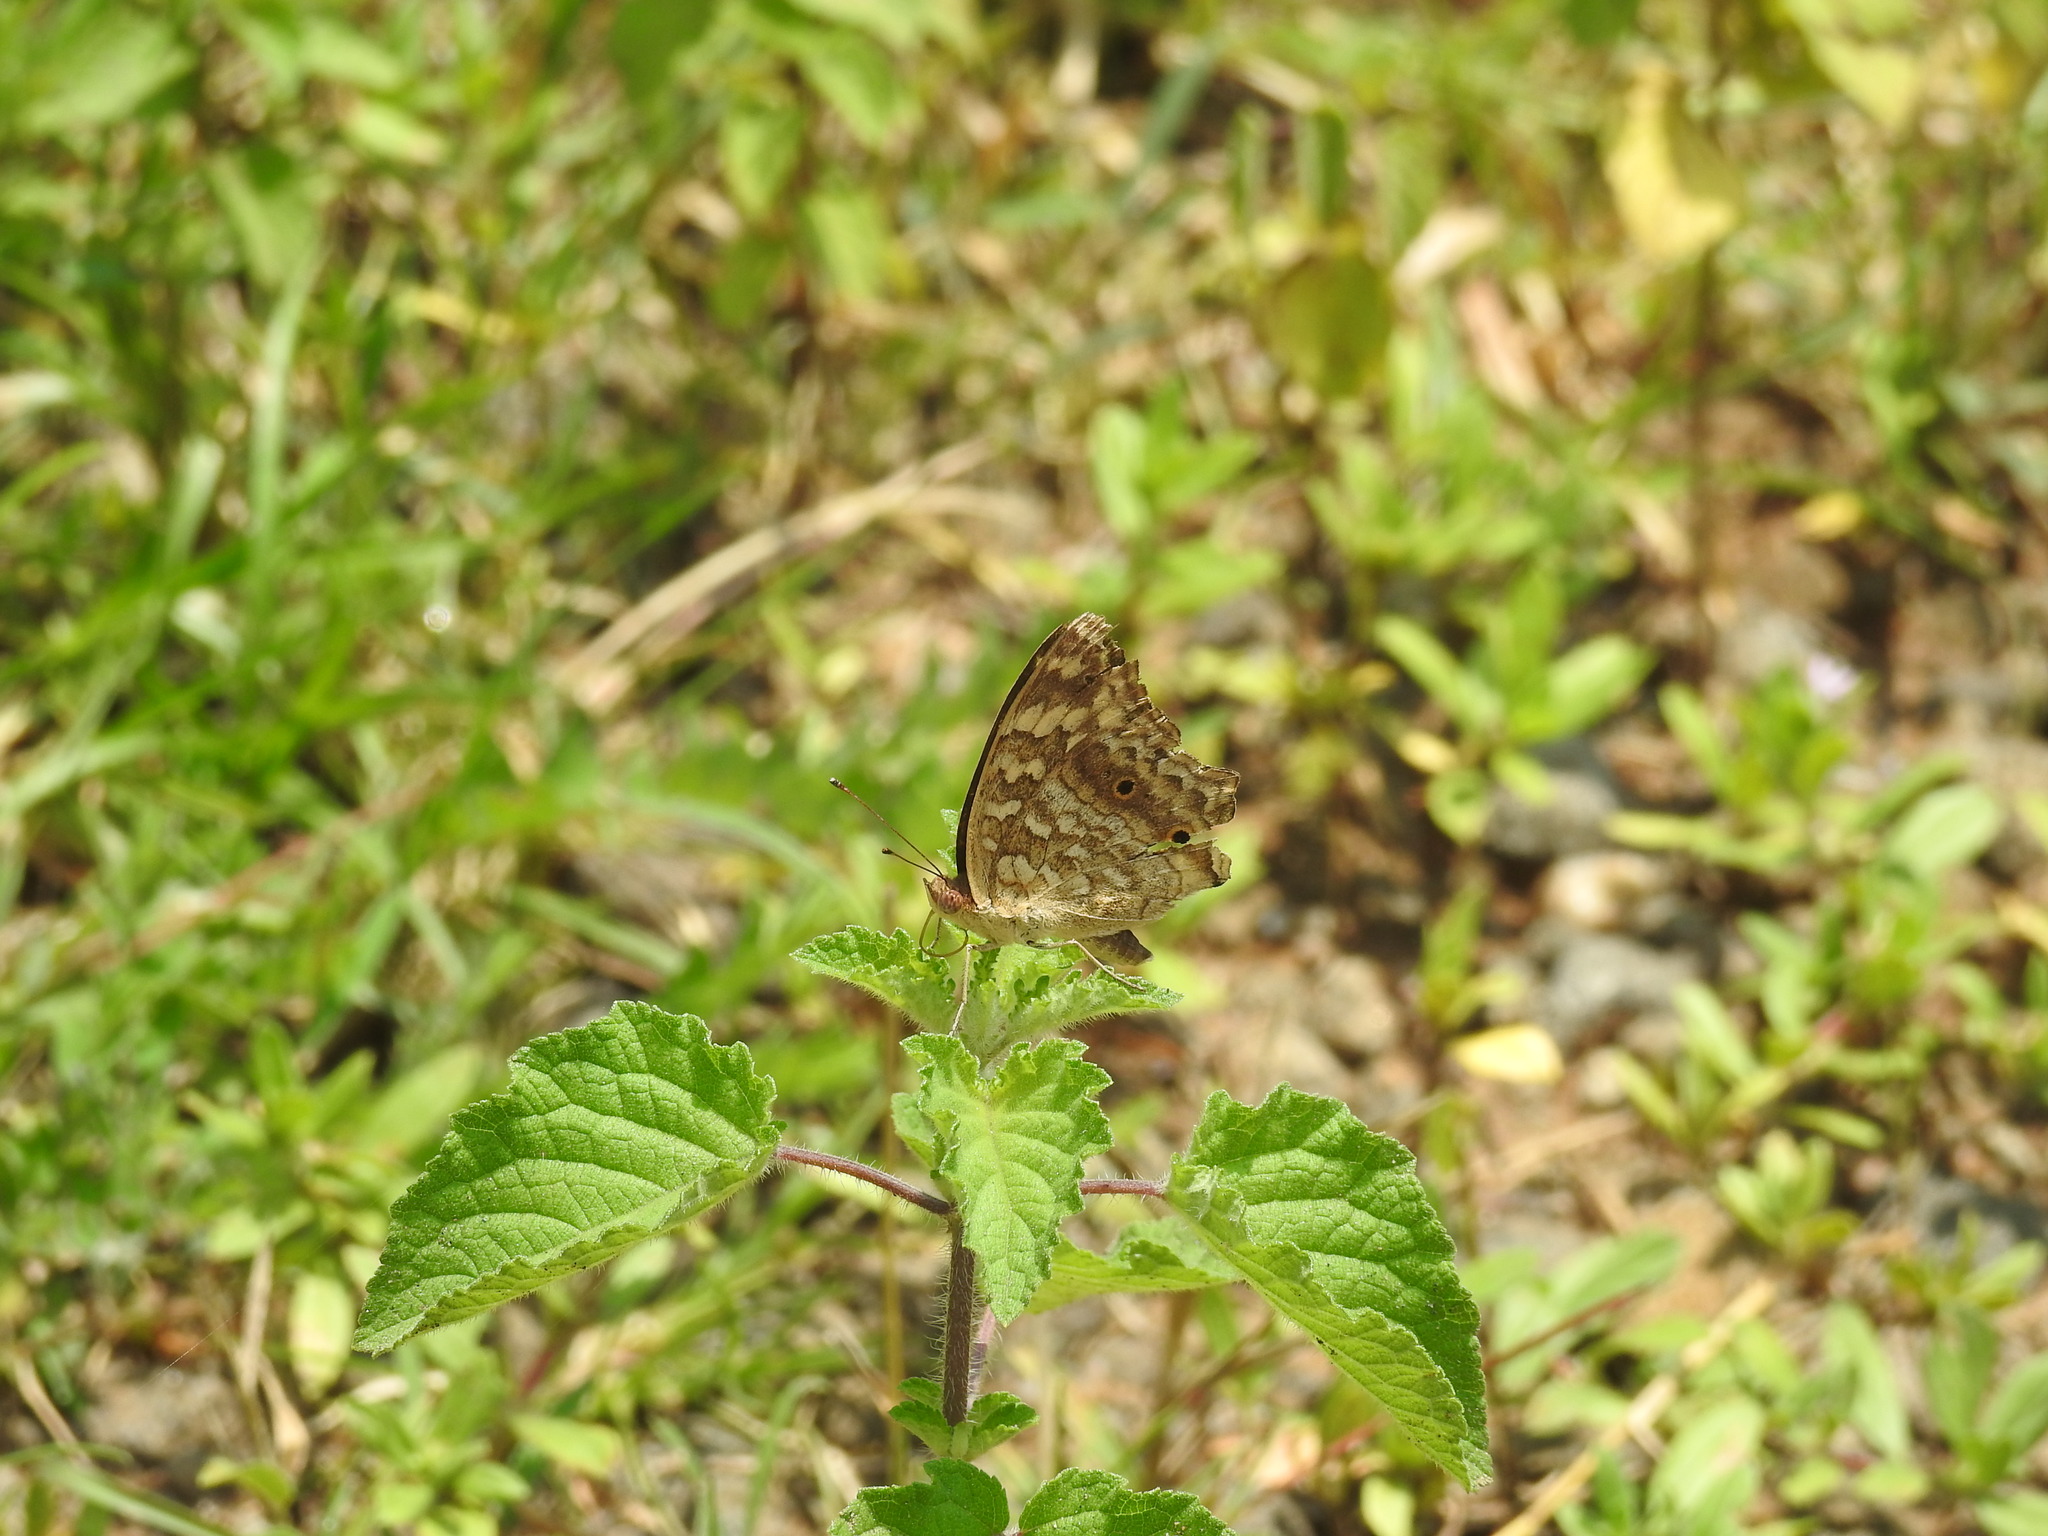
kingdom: Animalia
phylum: Arthropoda
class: Insecta
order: Lepidoptera
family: Nymphalidae
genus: Junonia
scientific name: Junonia lemonias
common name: Lemon pansy
